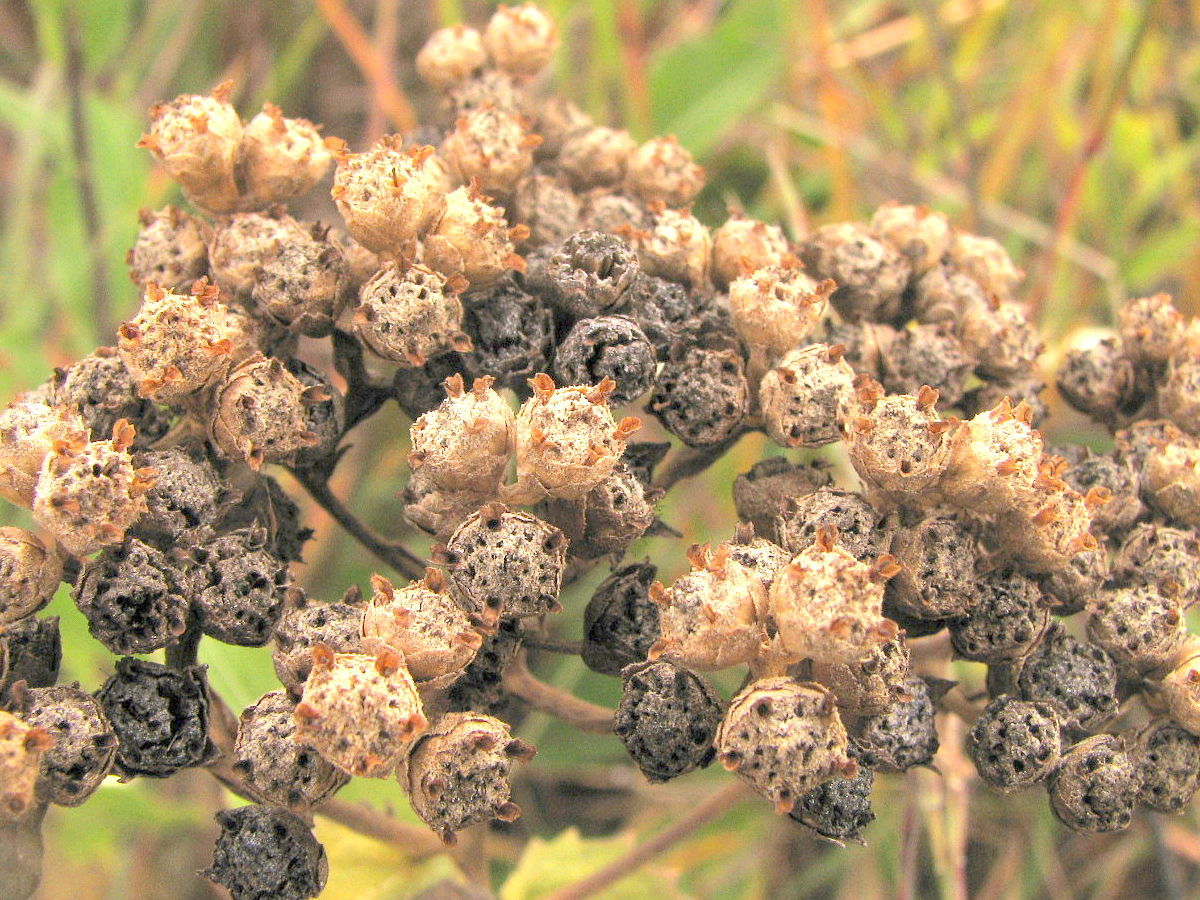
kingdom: Plantae
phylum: Tracheophyta
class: Magnoliopsida
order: Asterales
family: Asteraceae
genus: Parthenium
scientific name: Parthenium integrifolium
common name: American feverfew
